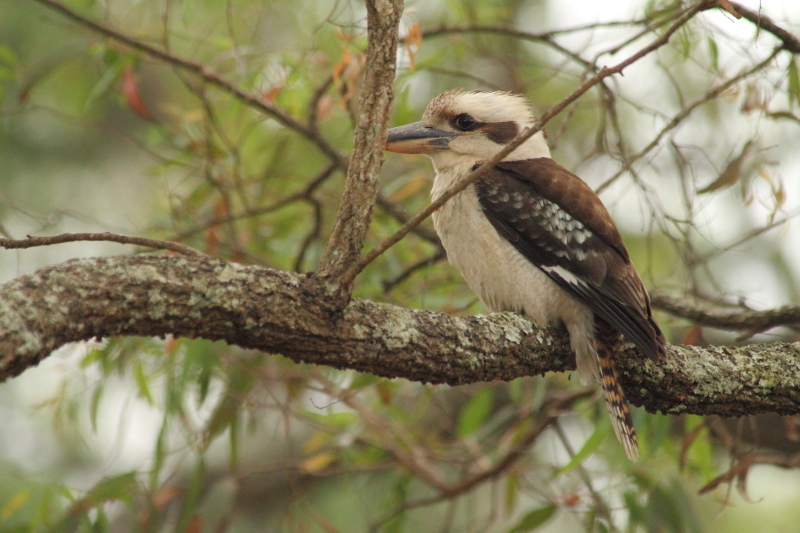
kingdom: Animalia
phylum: Chordata
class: Aves
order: Coraciiformes
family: Alcedinidae
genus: Dacelo
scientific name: Dacelo novaeguineae
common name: Laughing kookaburra
